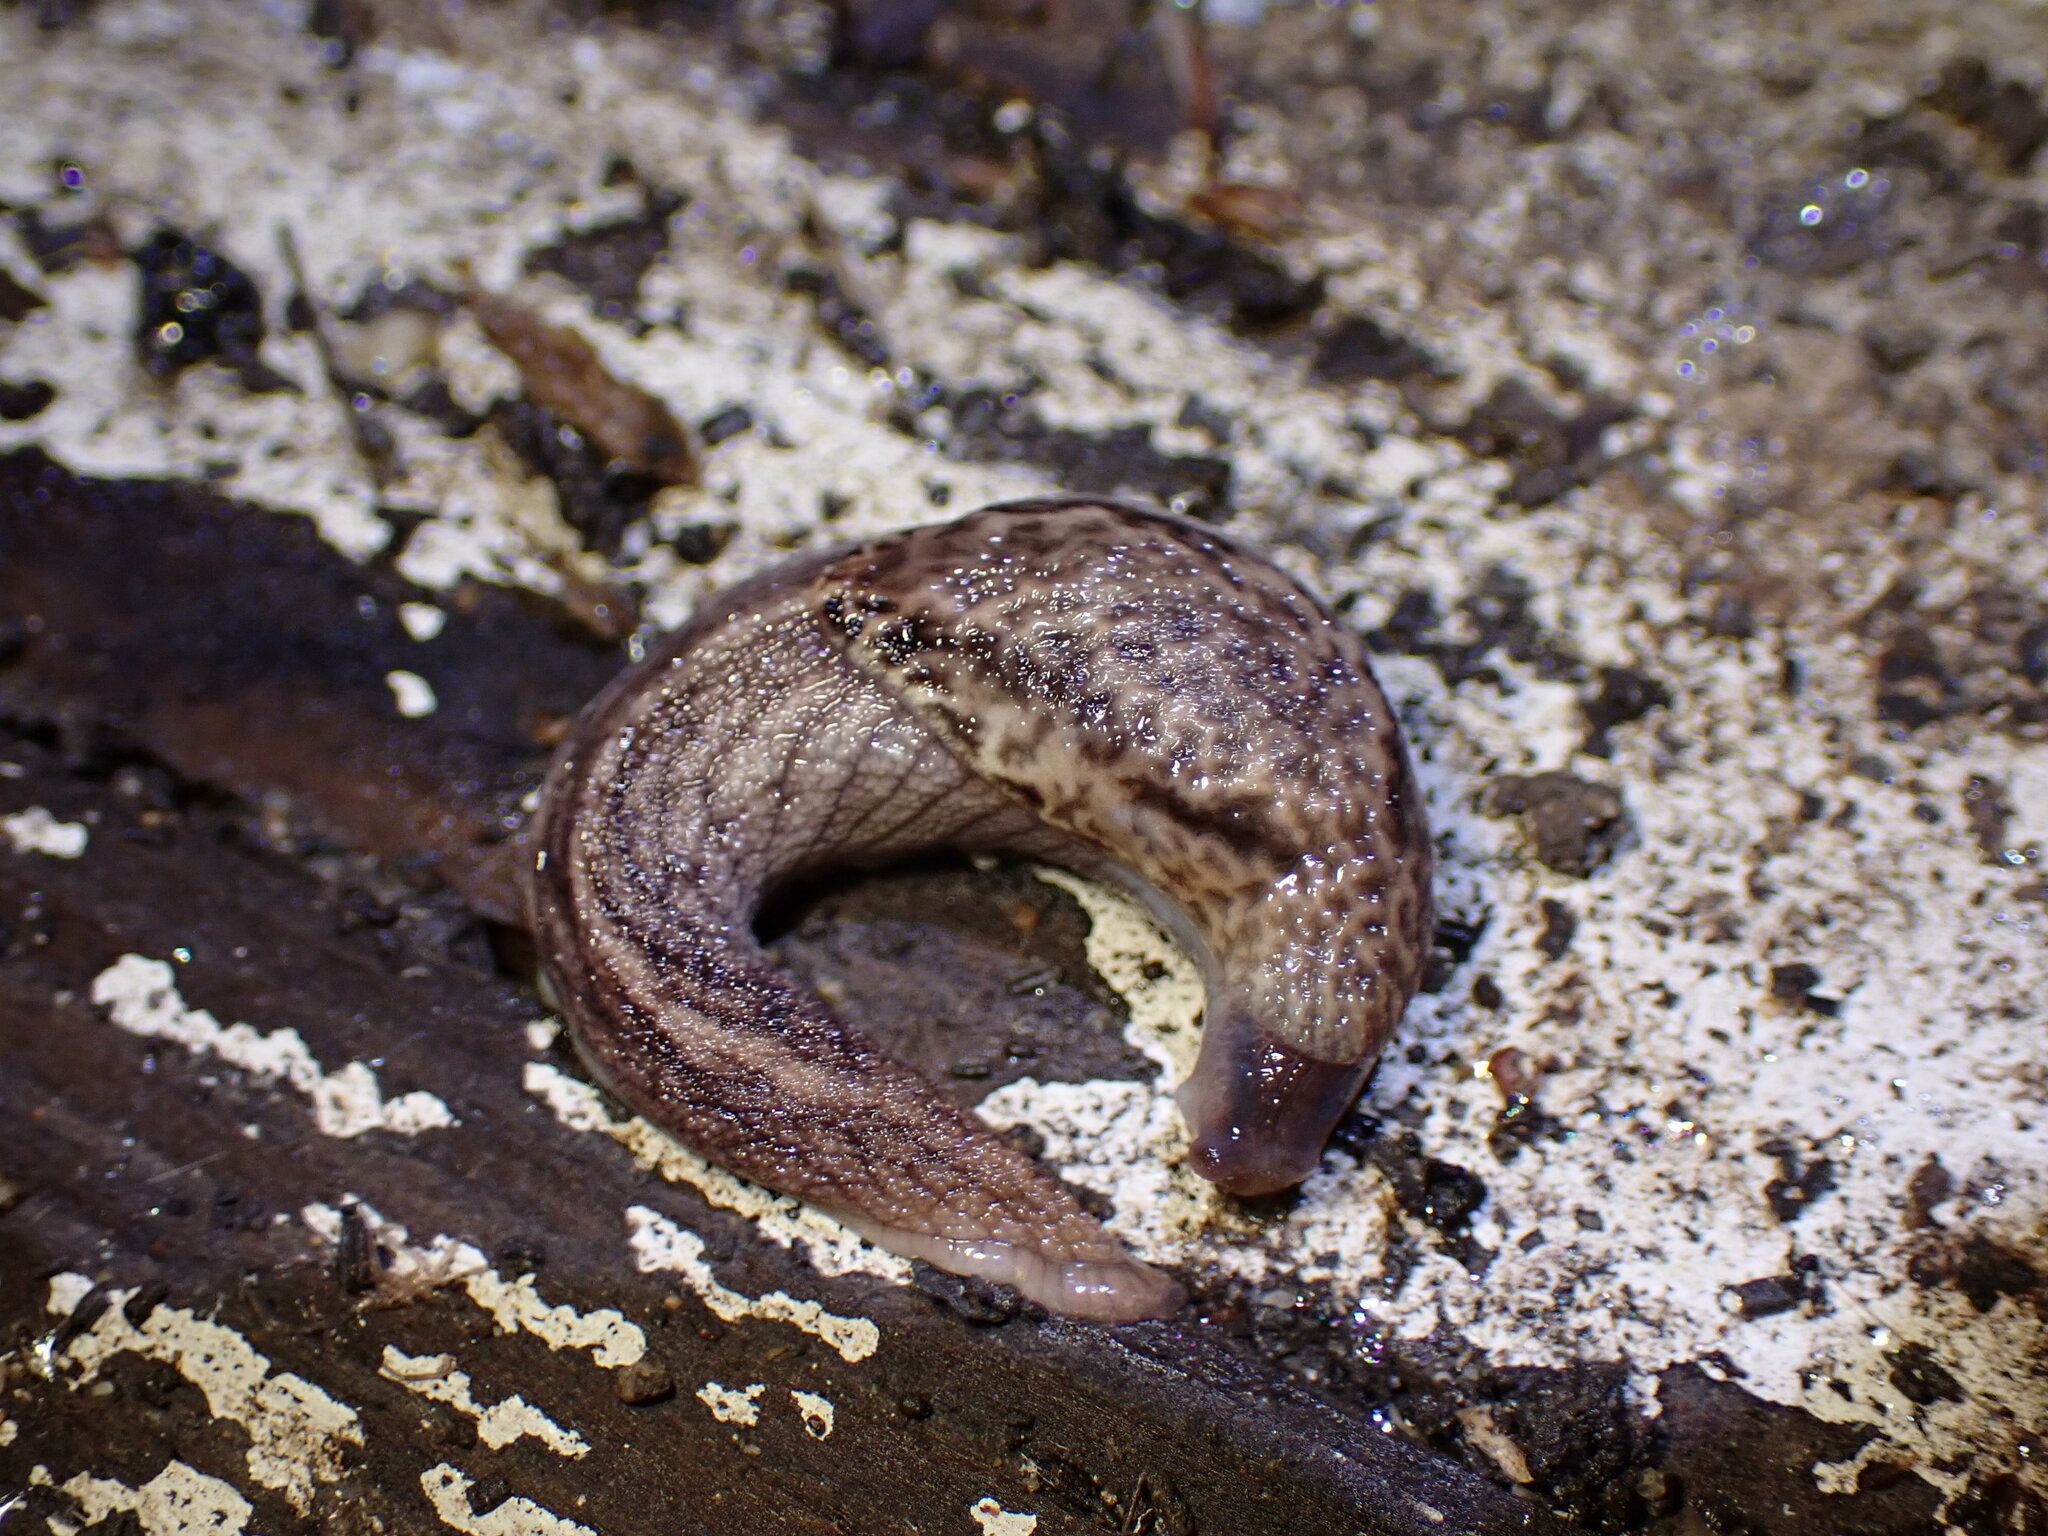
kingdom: Animalia
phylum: Mollusca
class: Gastropoda
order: Stylommatophora
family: Ariolimacidae
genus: Prophysaon
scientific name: Prophysaon andersonii
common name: Reticulate taildropper
